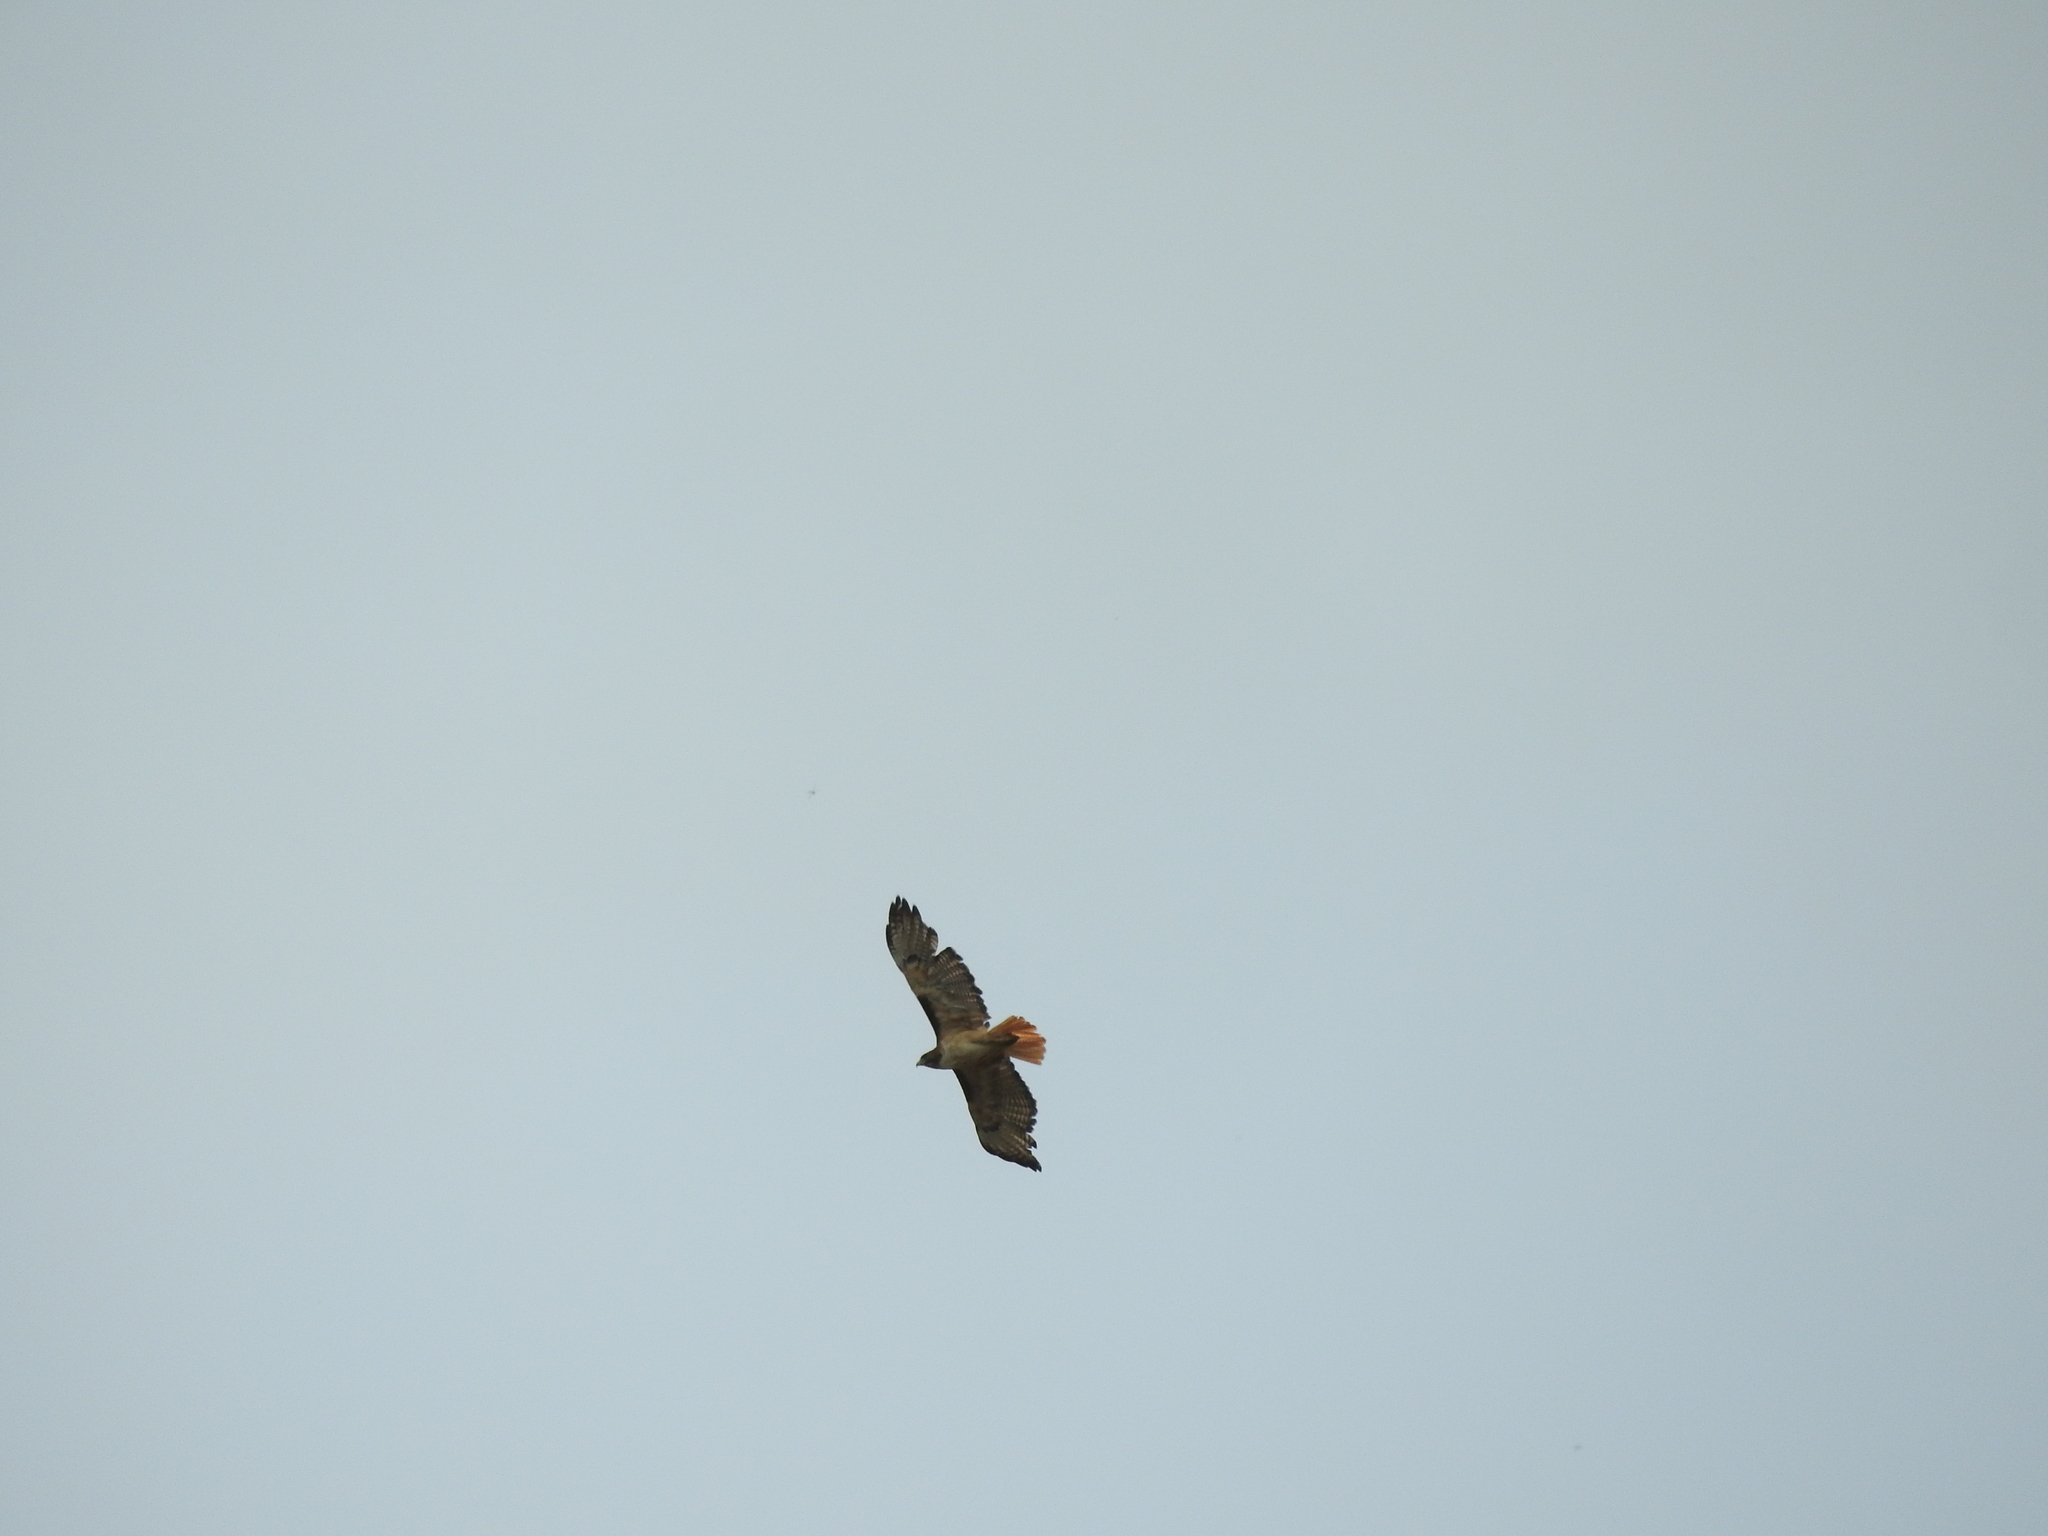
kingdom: Animalia
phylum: Chordata
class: Aves
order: Accipitriformes
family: Accipitridae
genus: Buteo
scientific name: Buteo jamaicensis
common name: Red-tailed hawk
